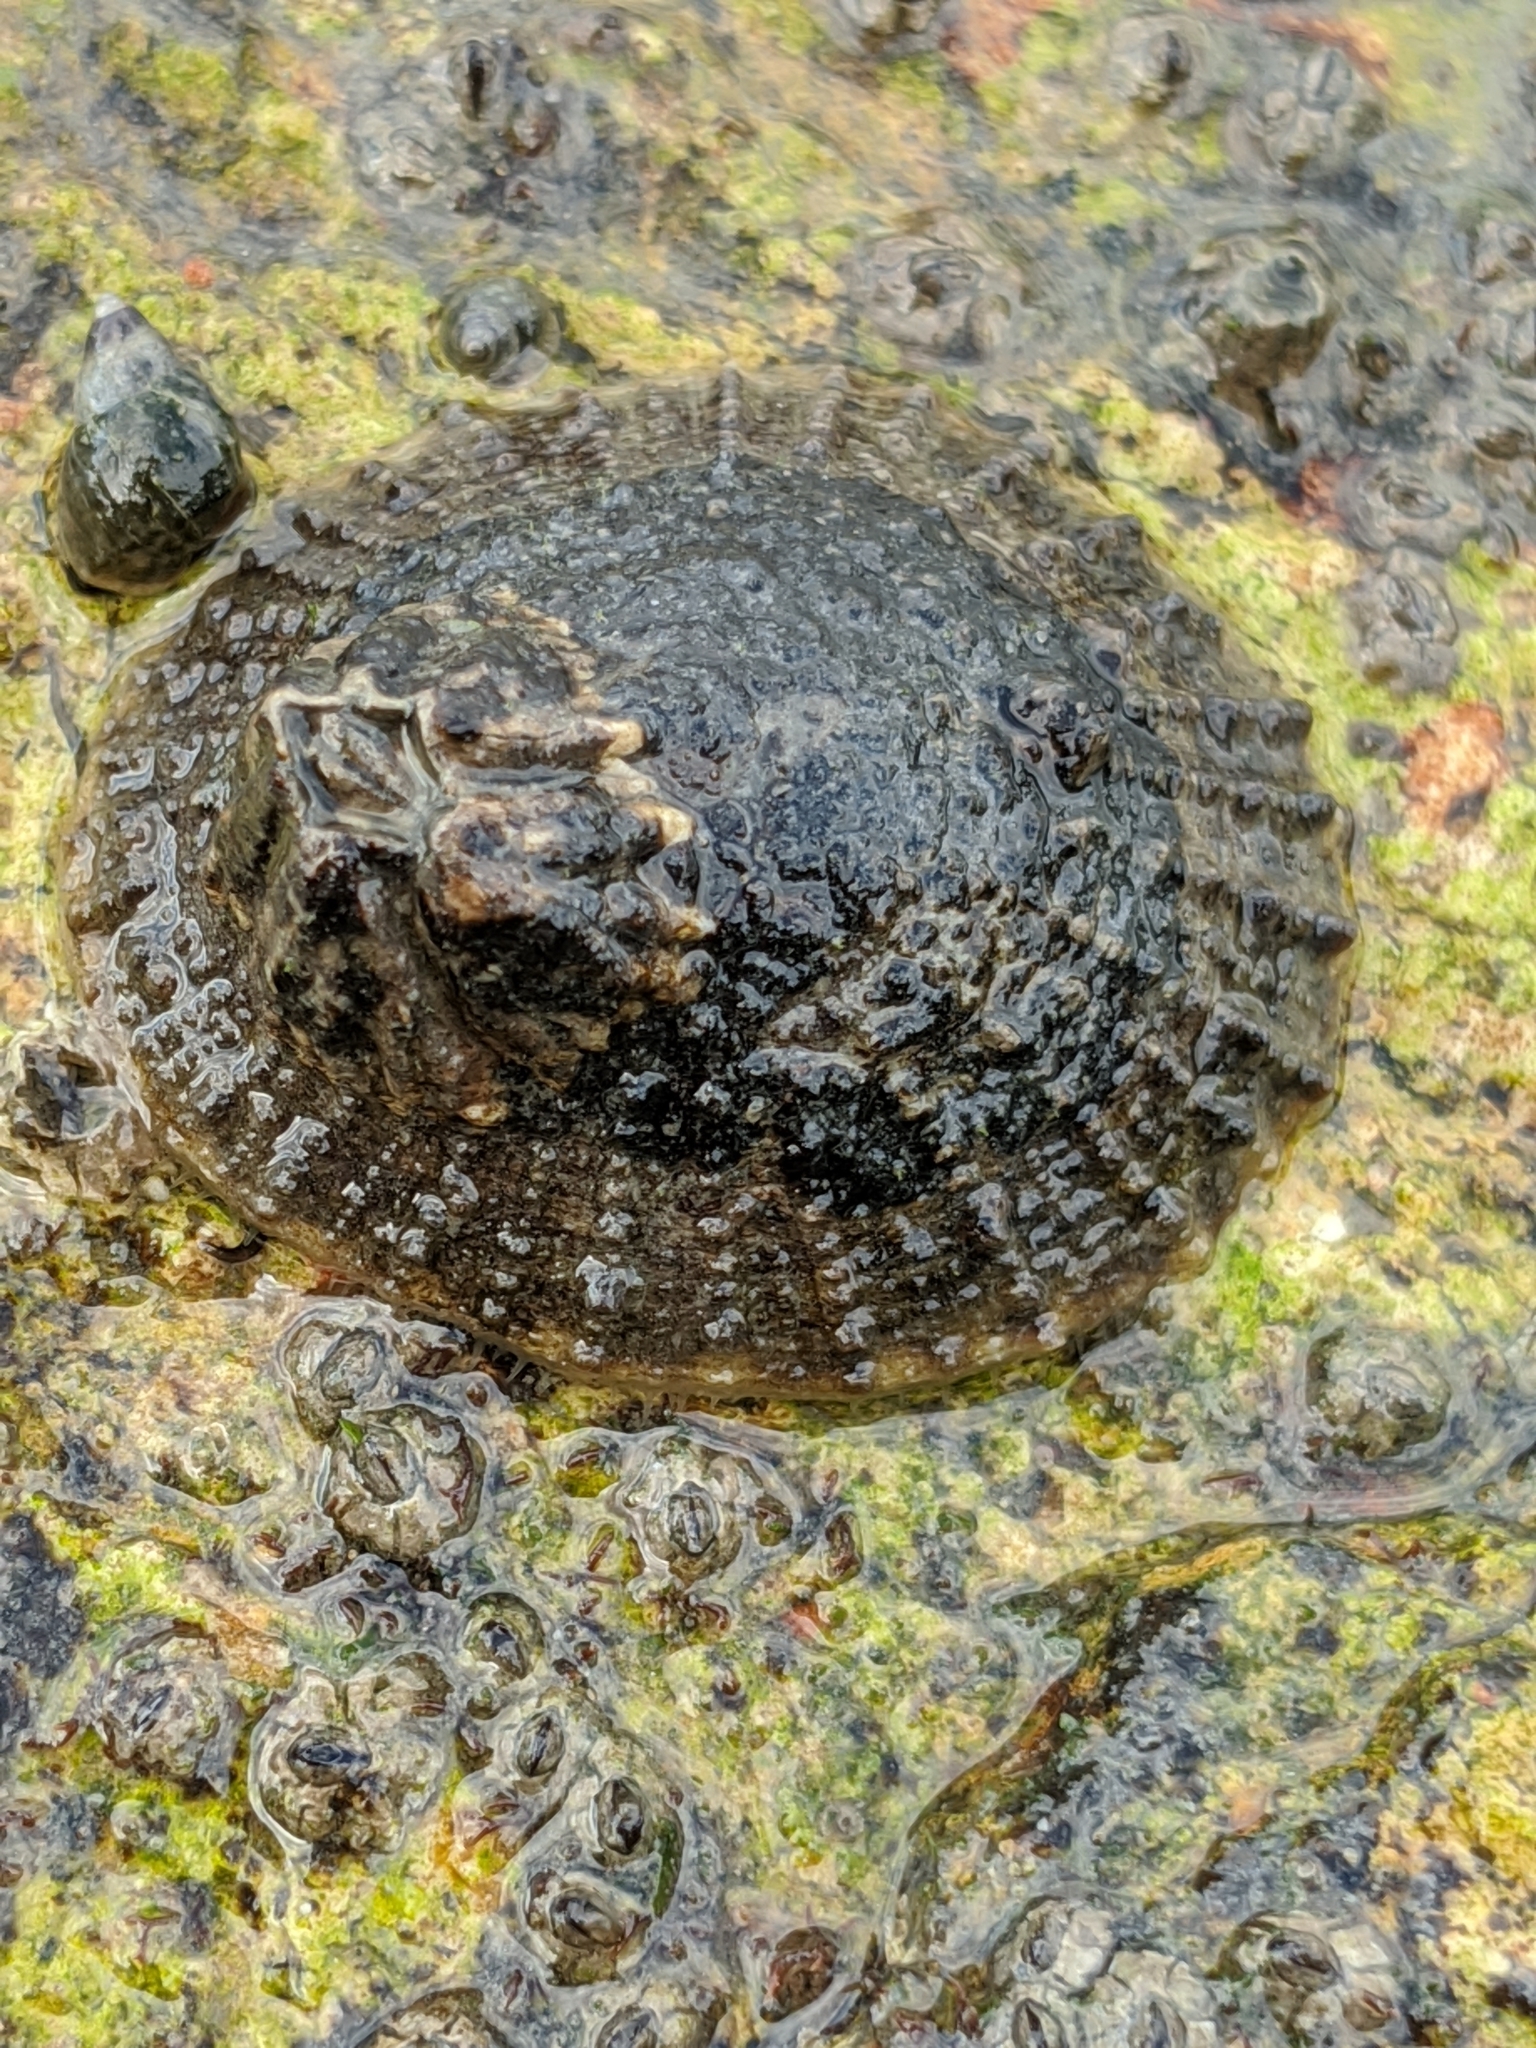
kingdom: Animalia
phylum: Mollusca
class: Gastropoda
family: Lottiidae
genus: Lottia
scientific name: Lottia limatula
